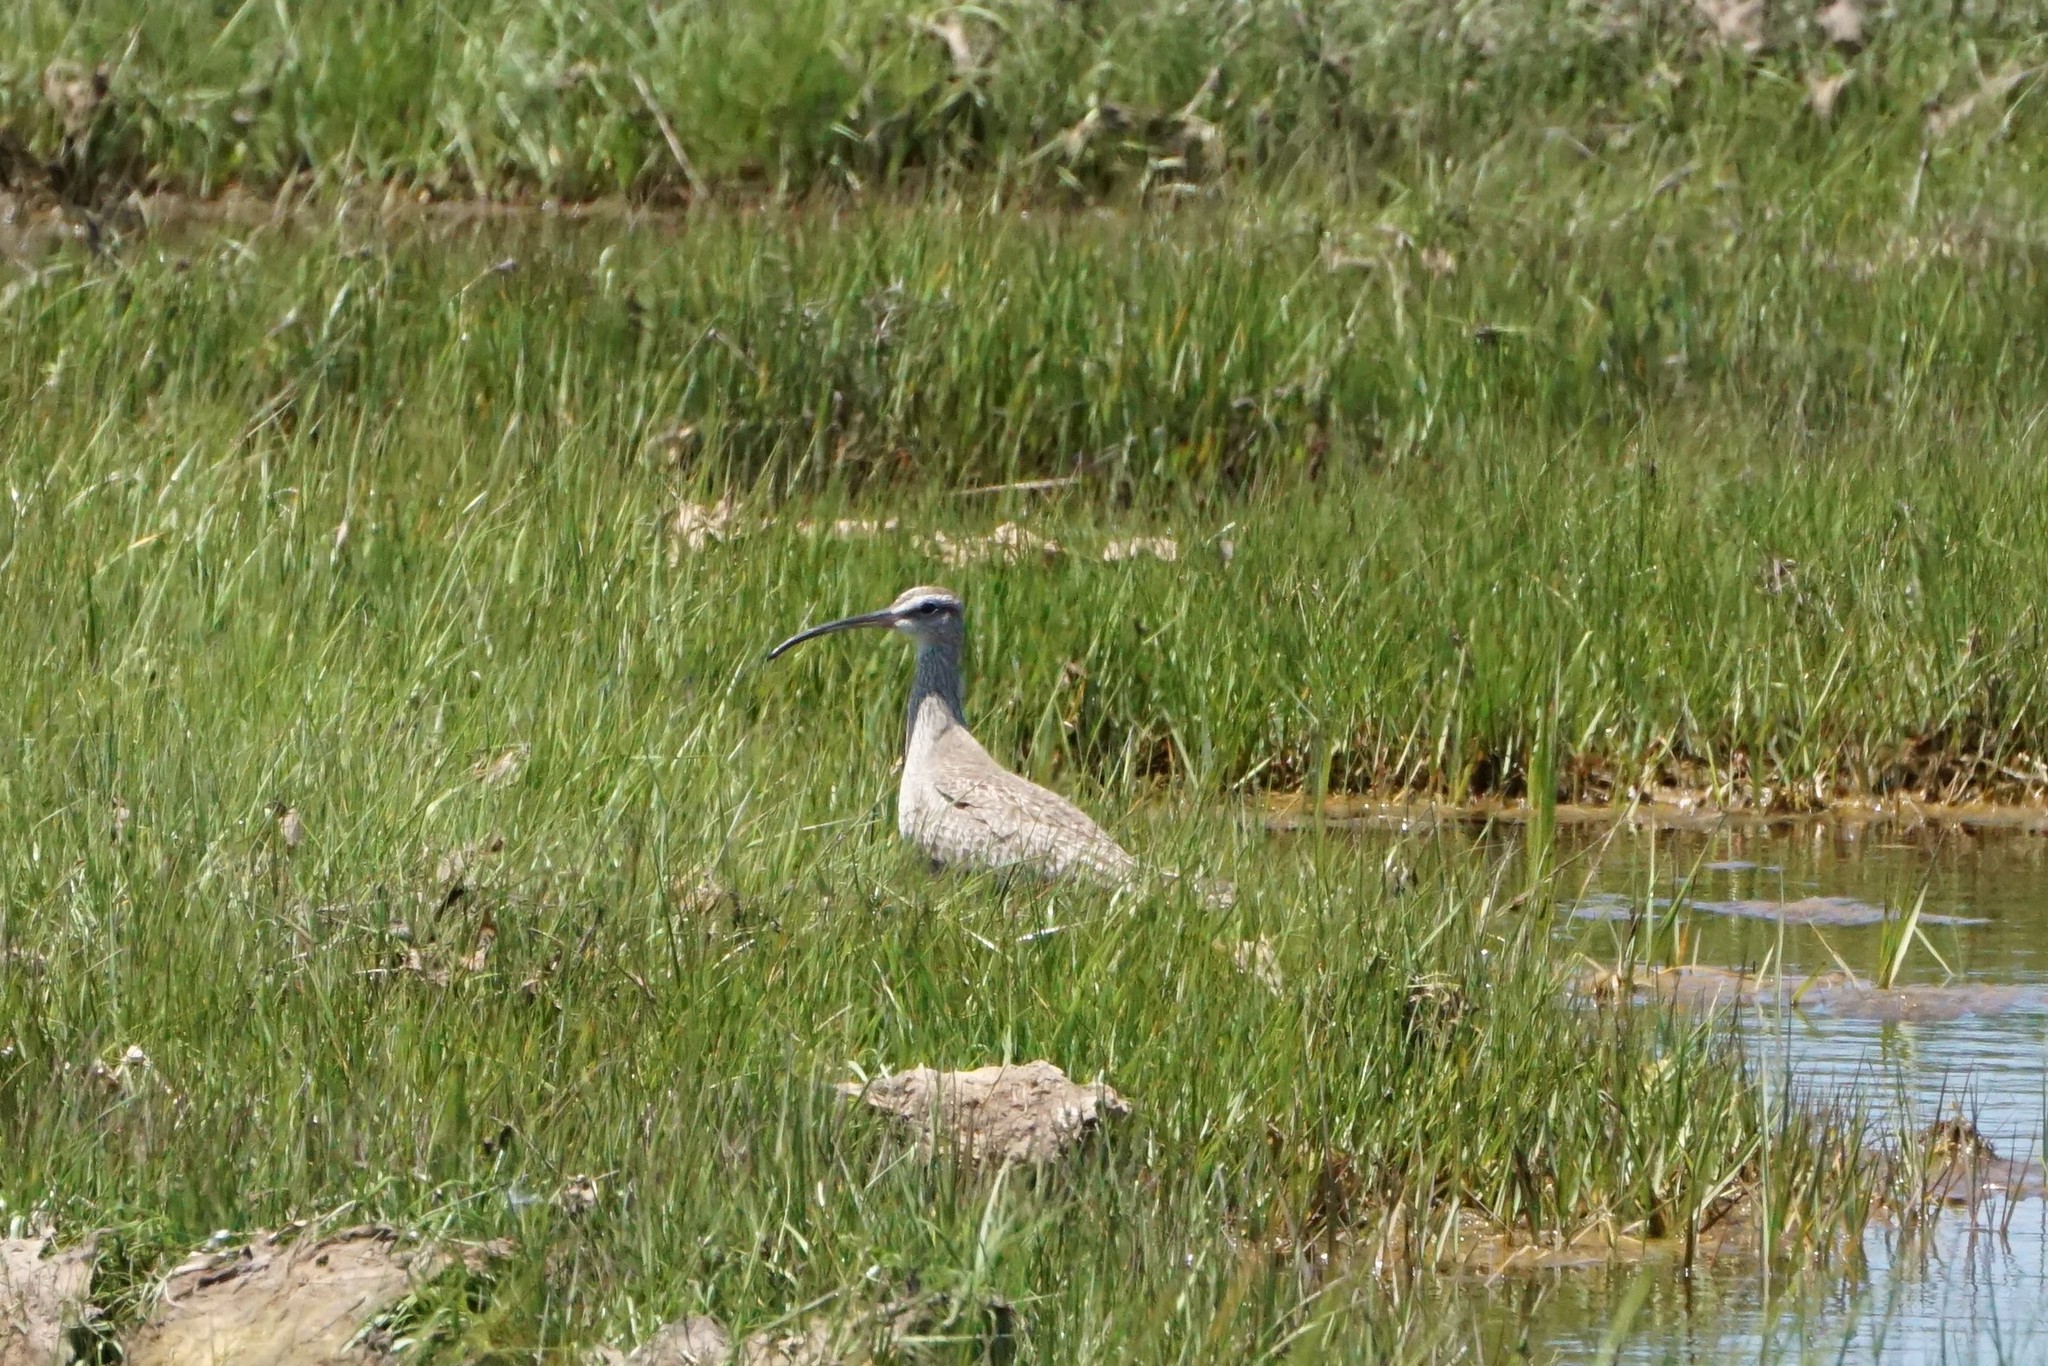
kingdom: Animalia
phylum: Chordata
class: Aves
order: Charadriiformes
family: Scolopacidae
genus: Numenius
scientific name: Numenius phaeopus
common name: Whimbrel
